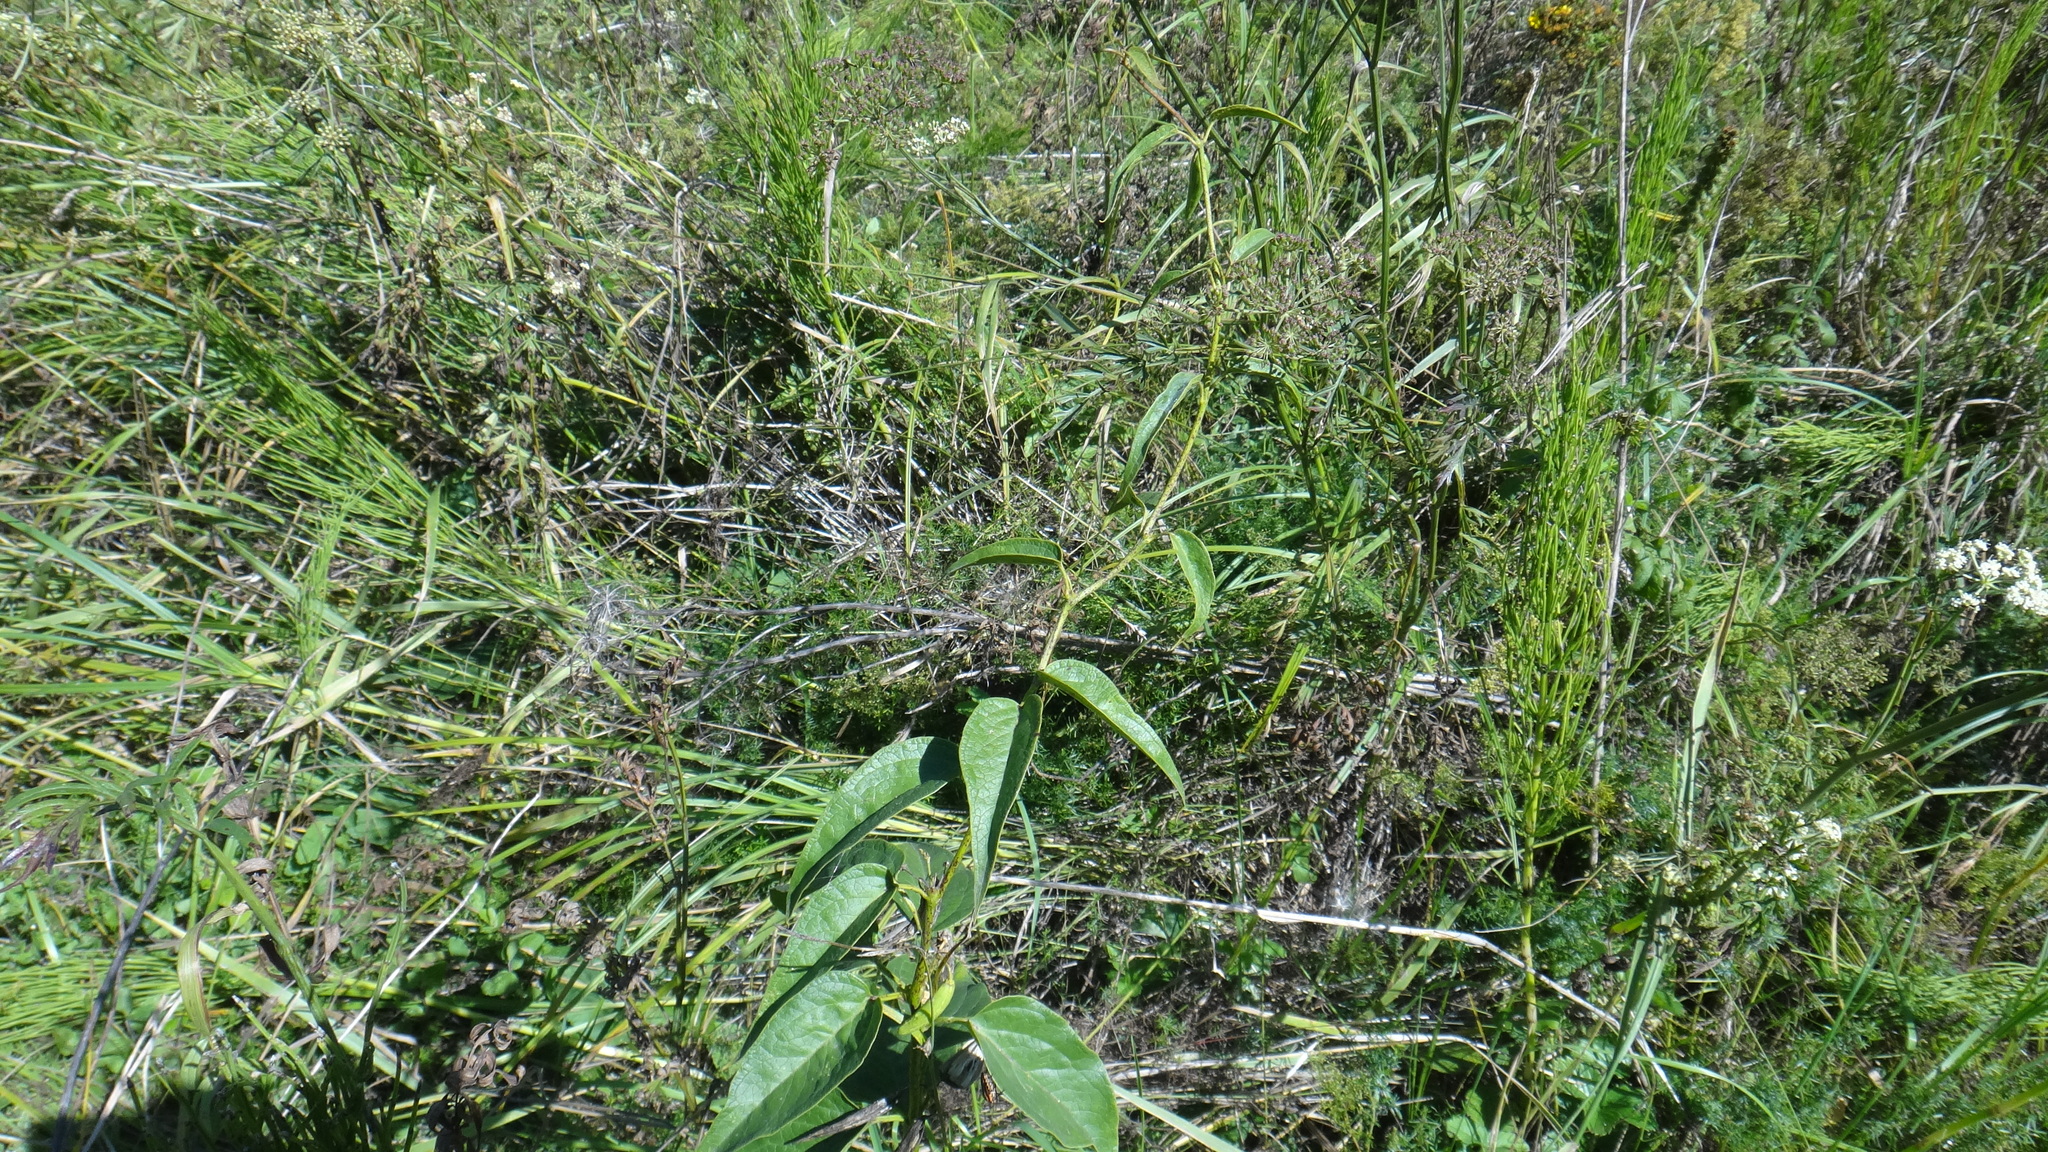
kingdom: Plantae
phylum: Tracheophyta
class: Magnoliopsida
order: Gentianales
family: Apocynaceae
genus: Vincetoxicum
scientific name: Vincetoxicum hirundinaria
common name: White swallowwort
